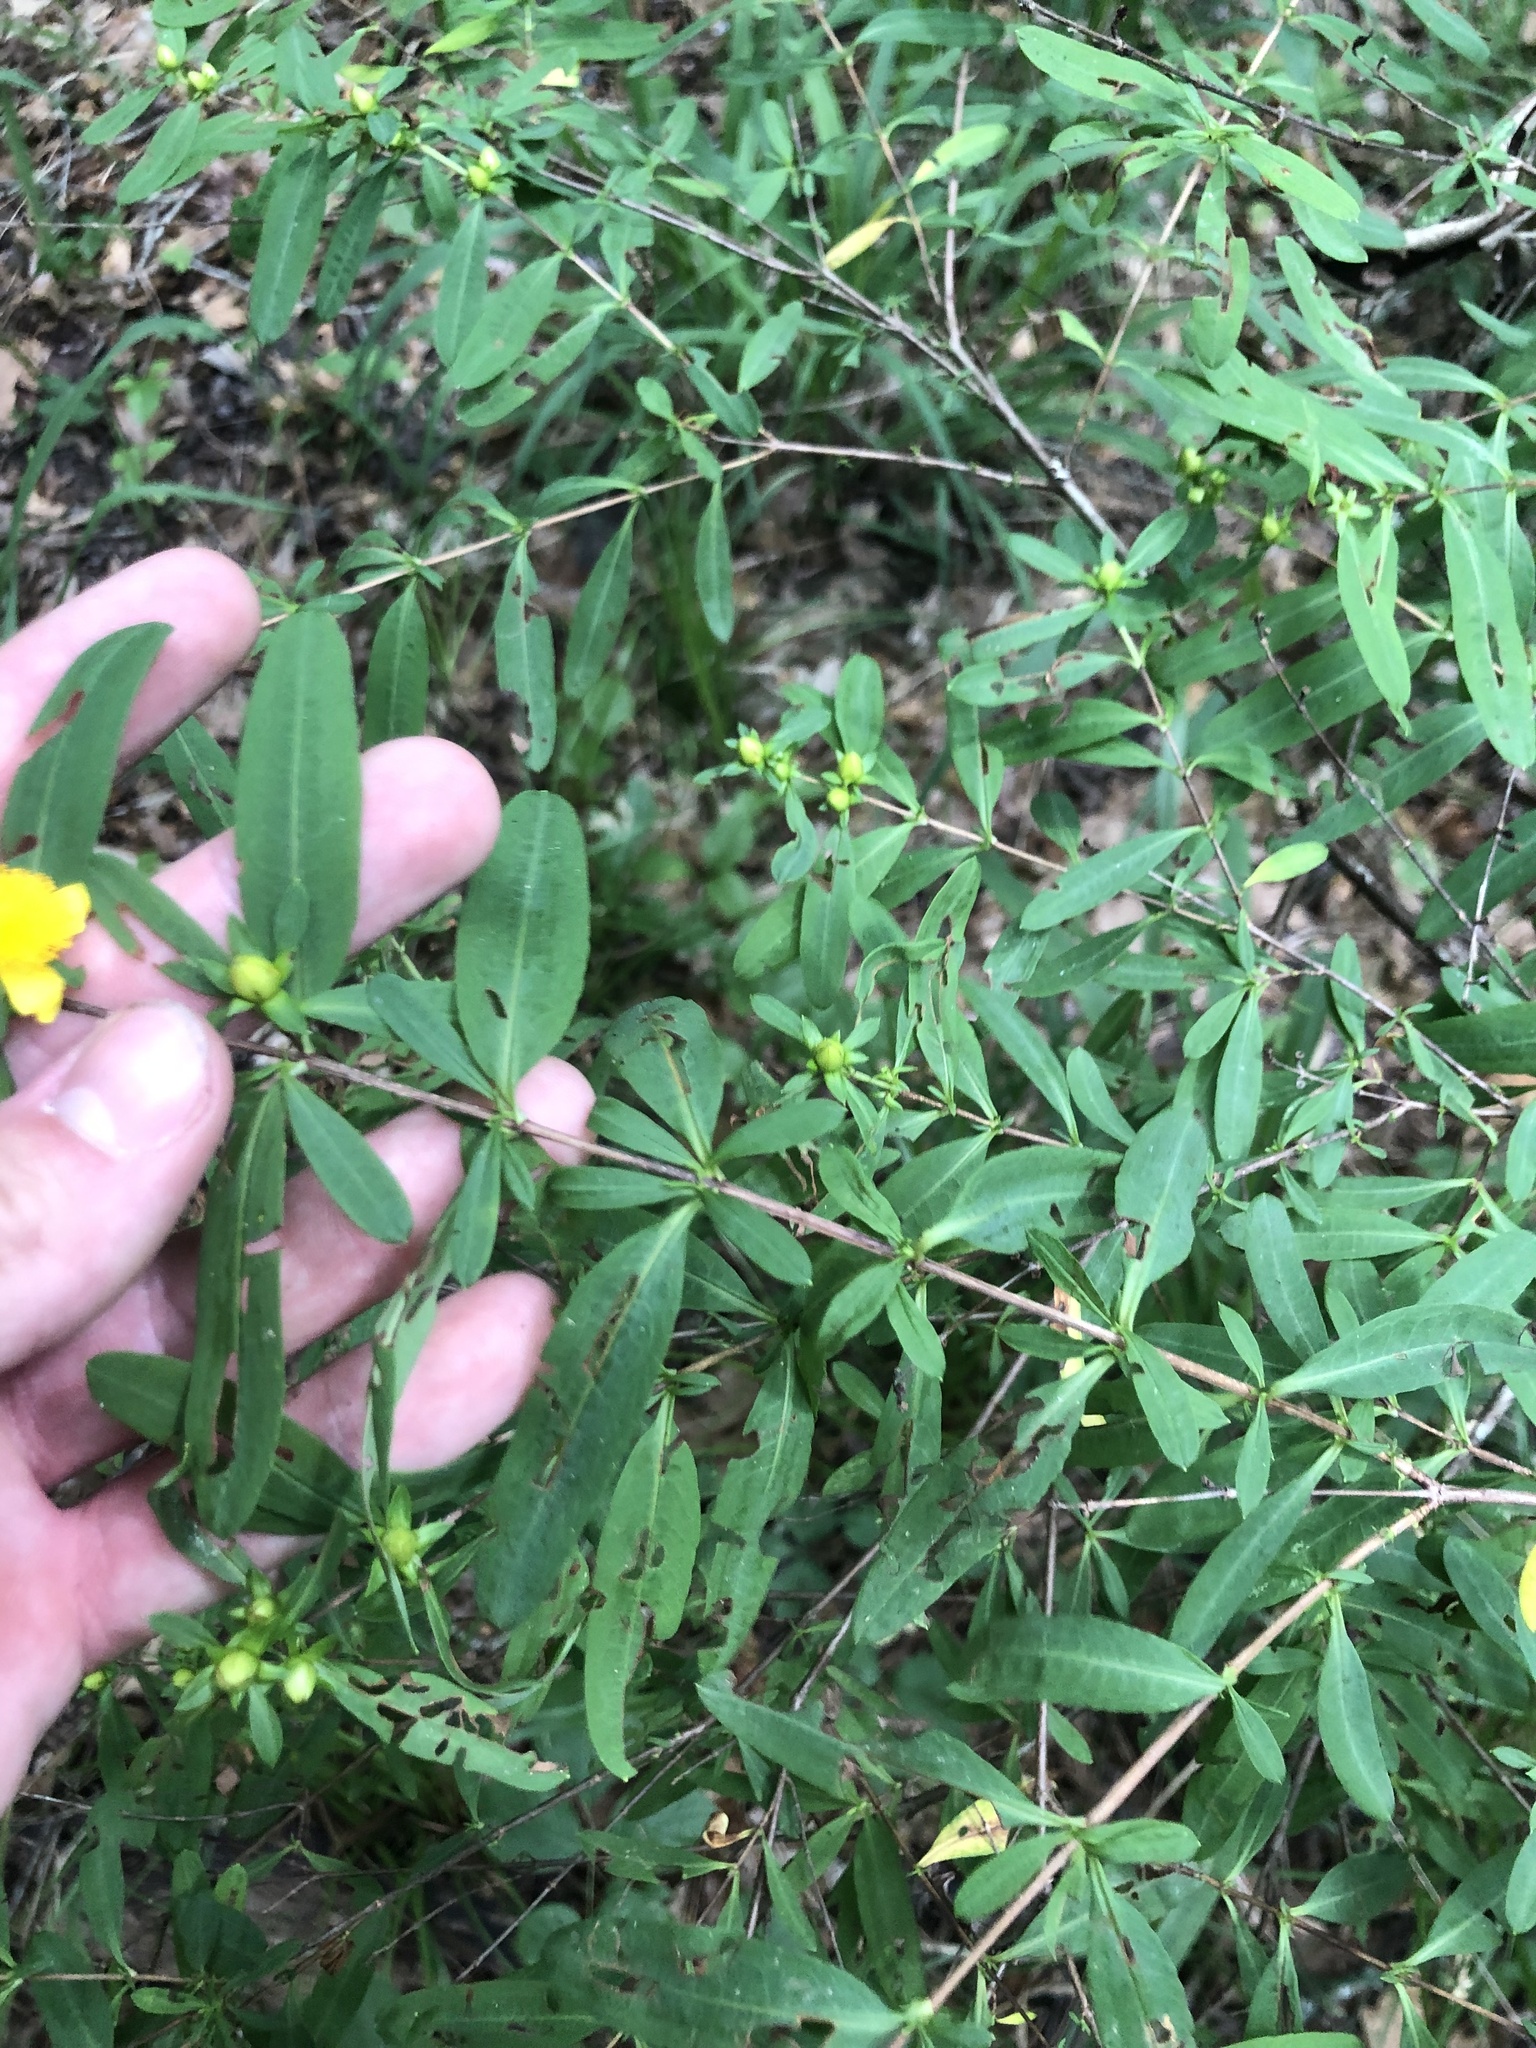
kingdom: Plantae
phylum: Tracheophyta
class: Magnoliopsida
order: Malpighiales
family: Hypericaceae
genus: Hypericum
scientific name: Hypericum frondosum
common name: Golden st. john's-wort
